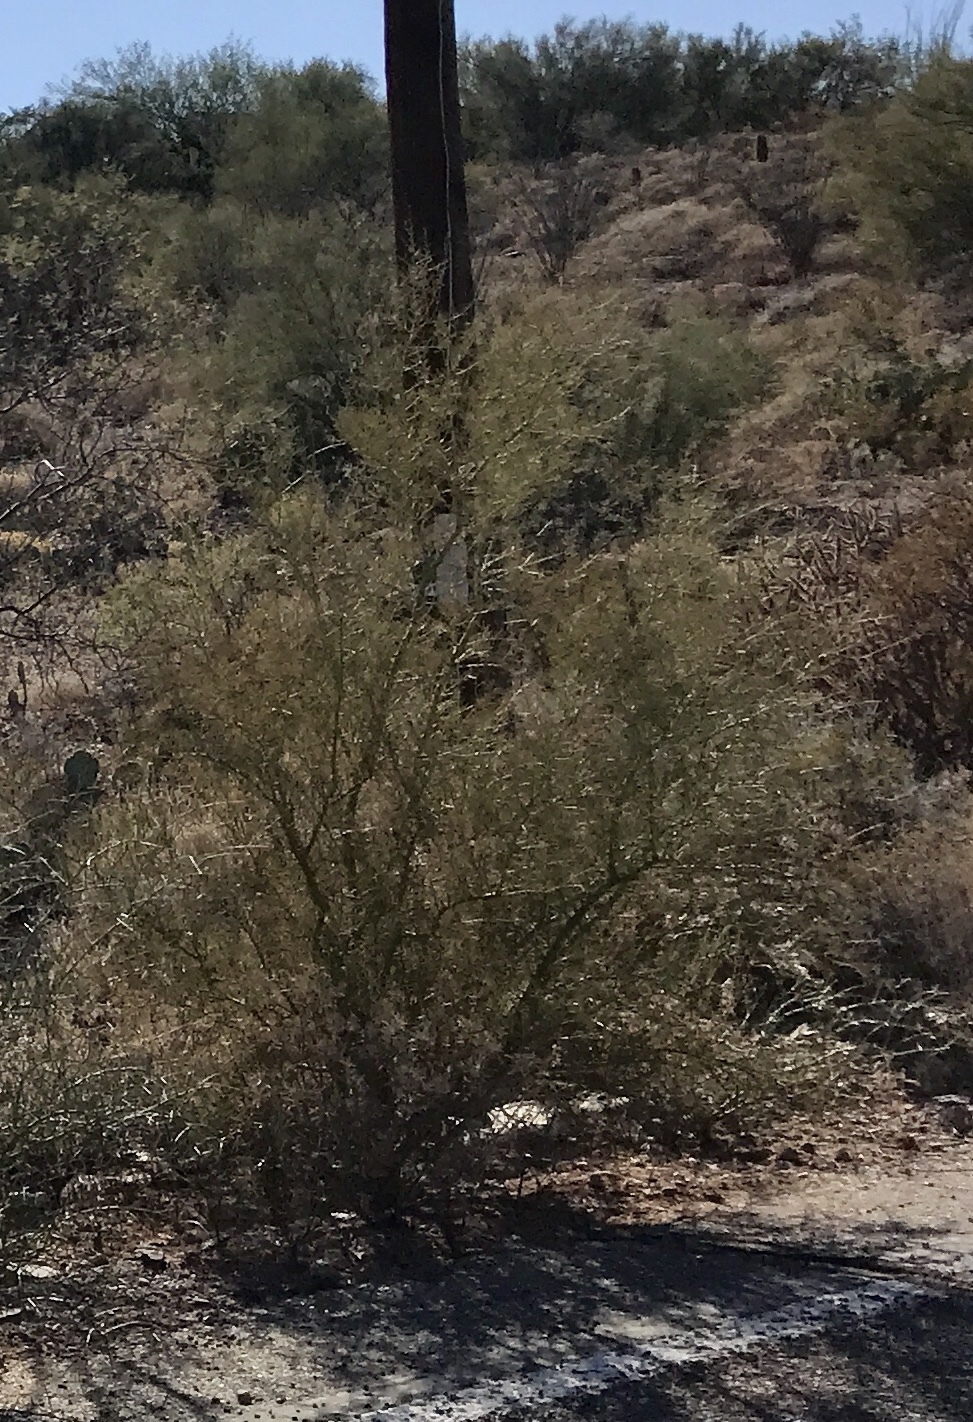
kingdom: Plantae
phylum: Tracheophyta
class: Magnoliopsida
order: Zygophyllales
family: Zygophyllaceae
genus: Larrea
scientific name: Larrea tridentata
